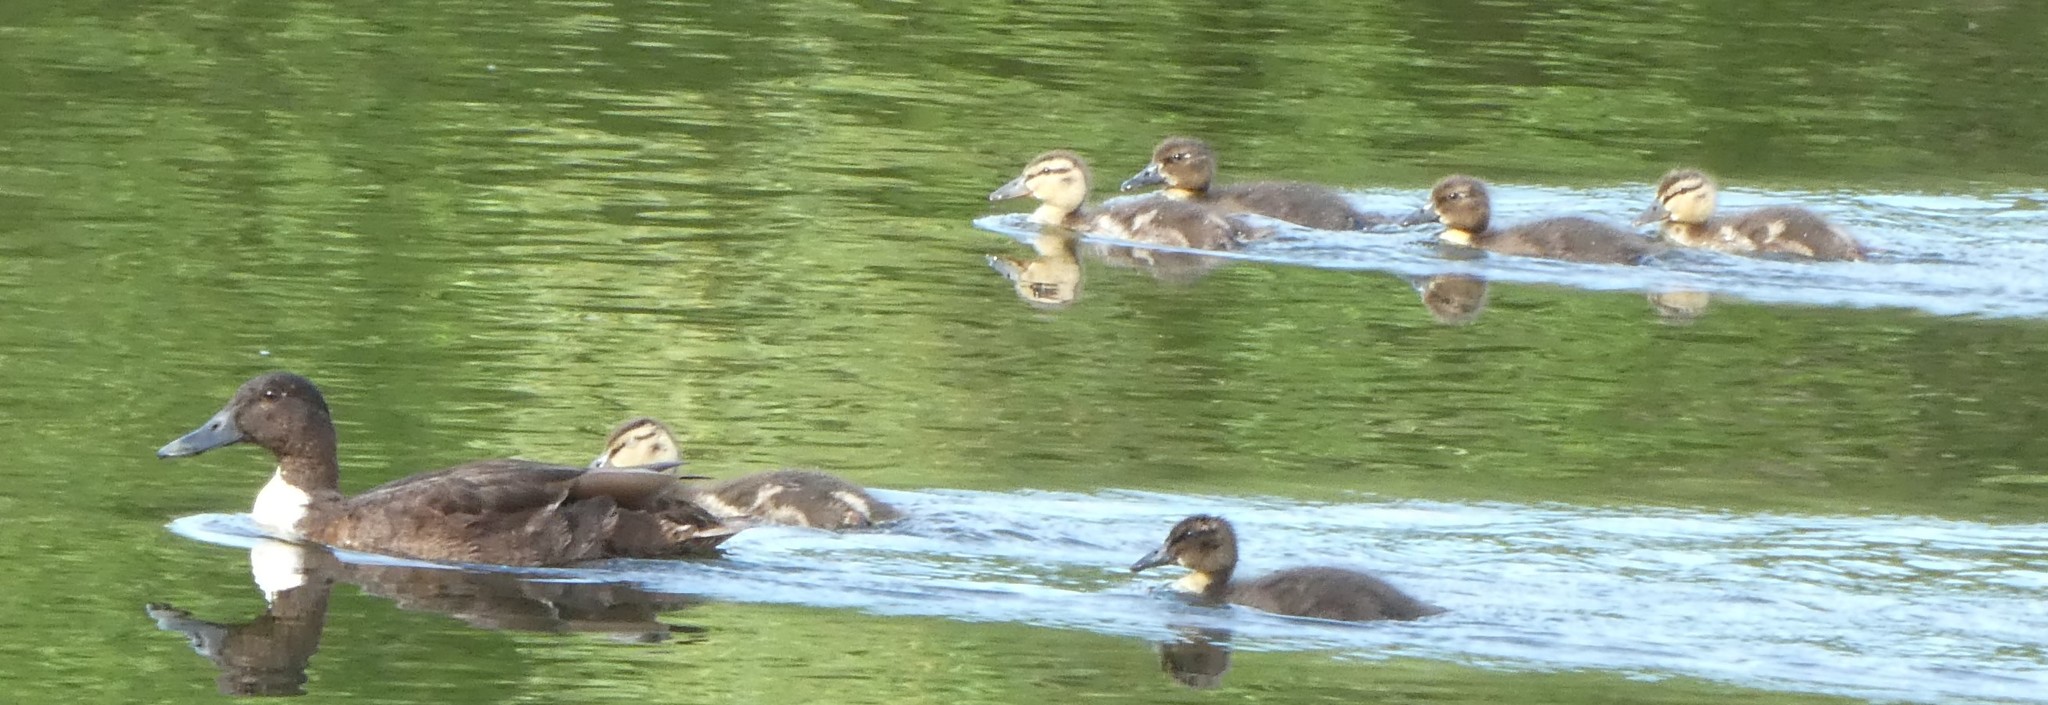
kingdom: Animalia
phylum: Chordata
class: Aves
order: Anseriformes
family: Anatidae
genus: Anas
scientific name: Anas platyrhynchos
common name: Mallard
